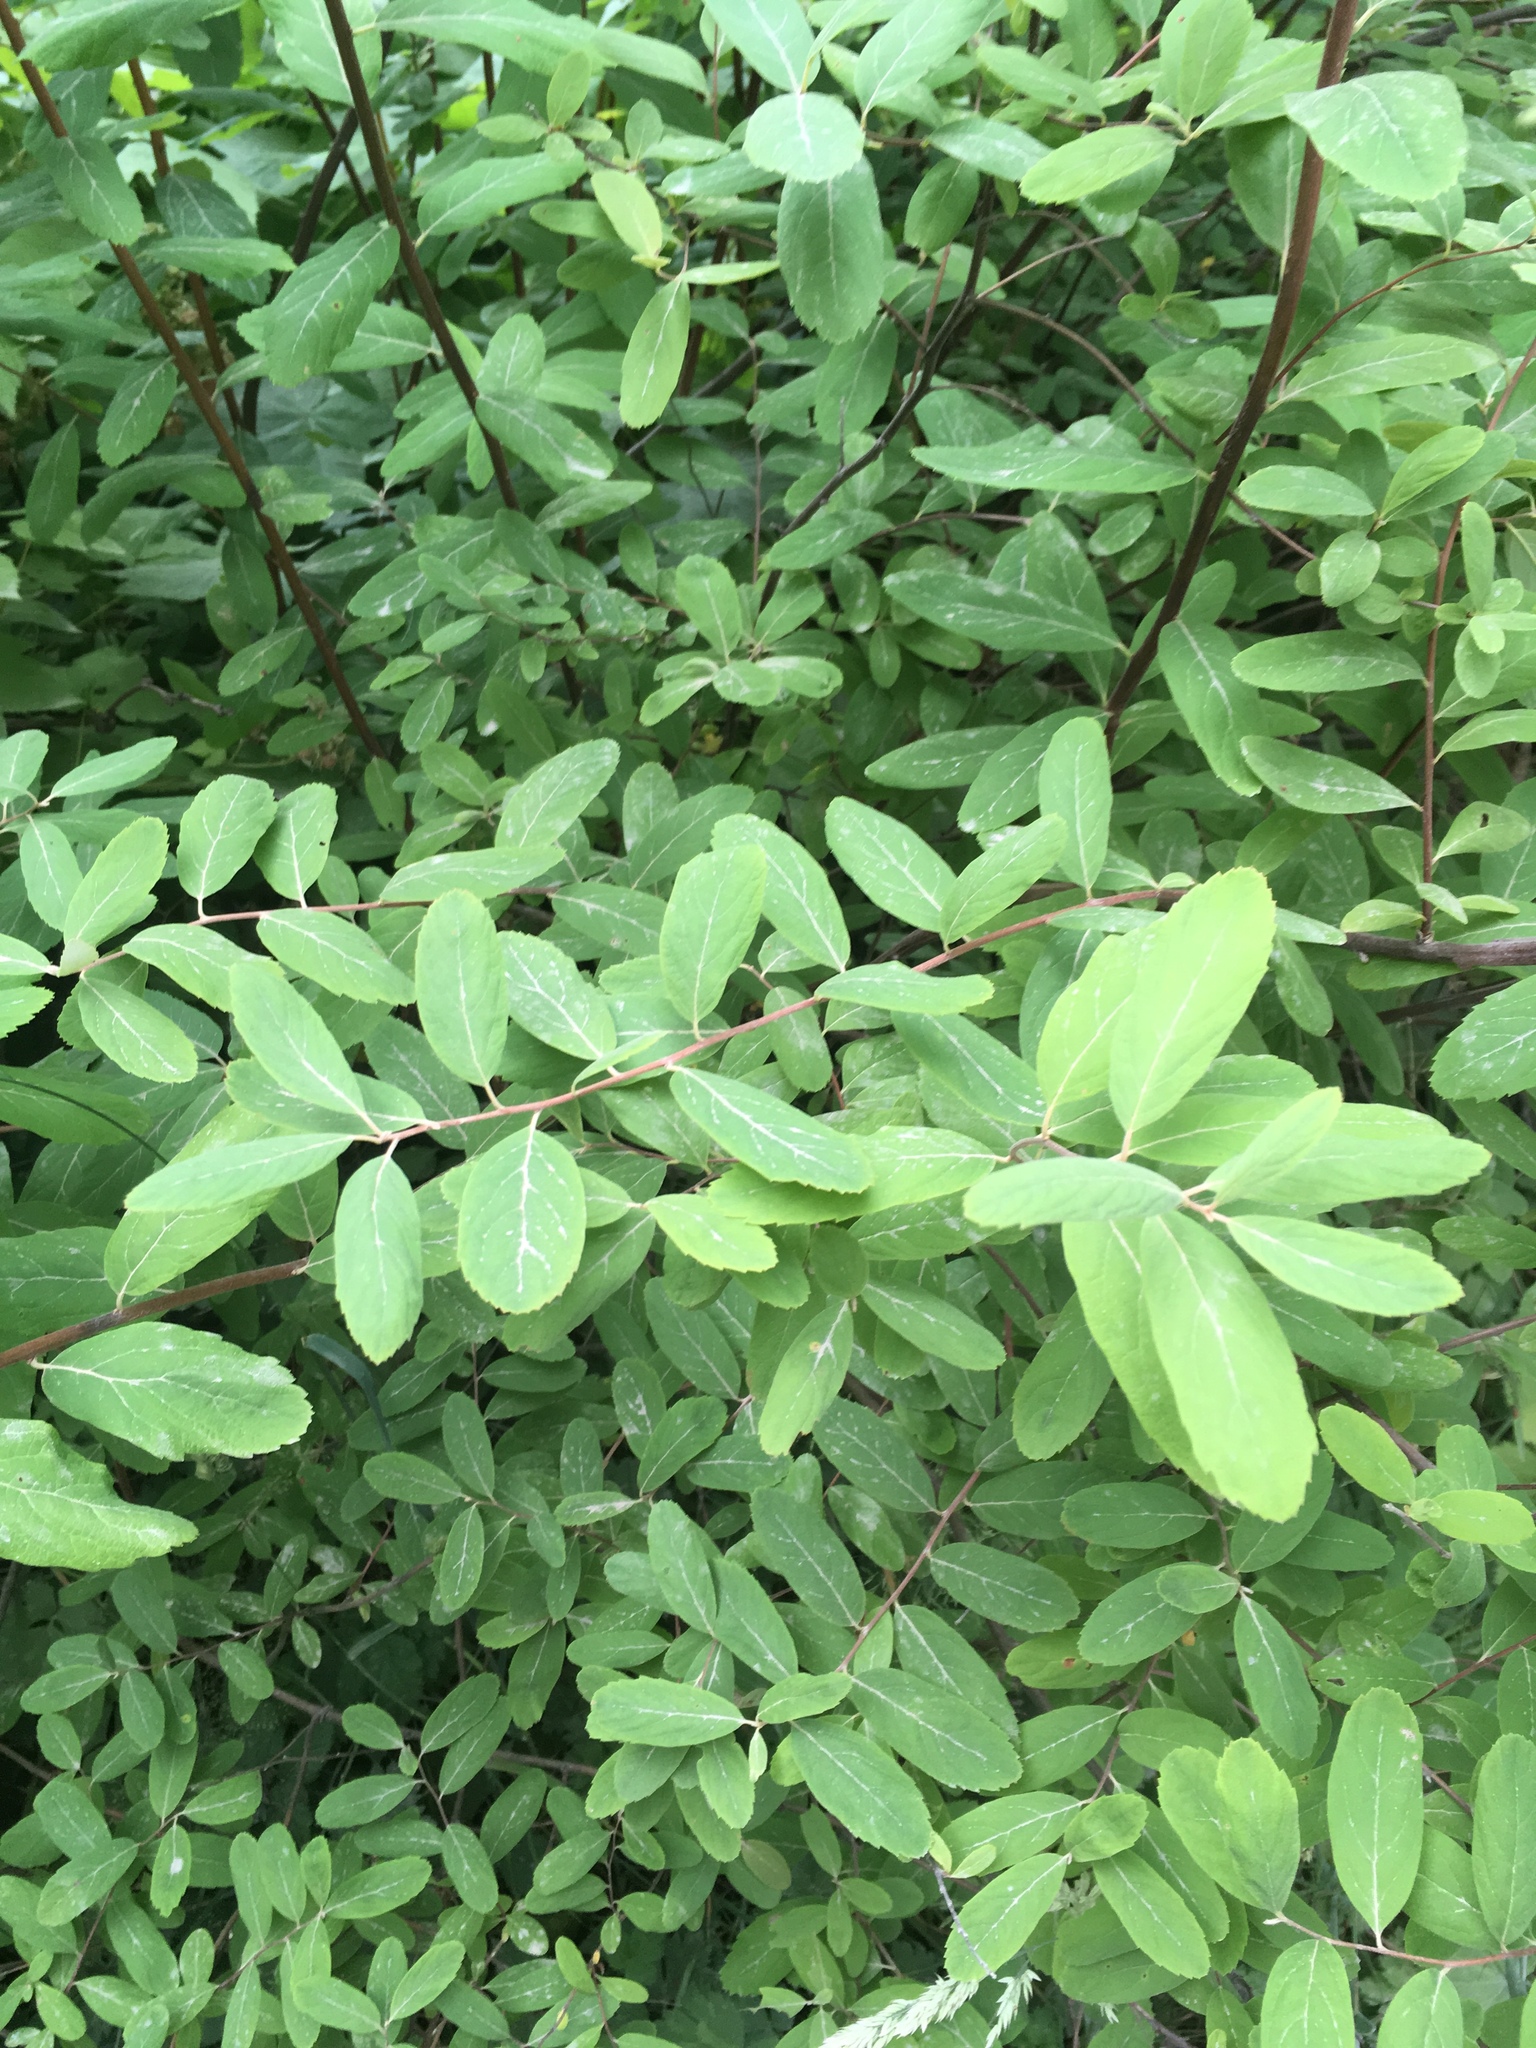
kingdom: Plantae
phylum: Tracheophyta
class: Magnoliopsida
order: Rosales
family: Rosaceae
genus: Spiraea
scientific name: Spiraea douglasii
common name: Steeplebush
